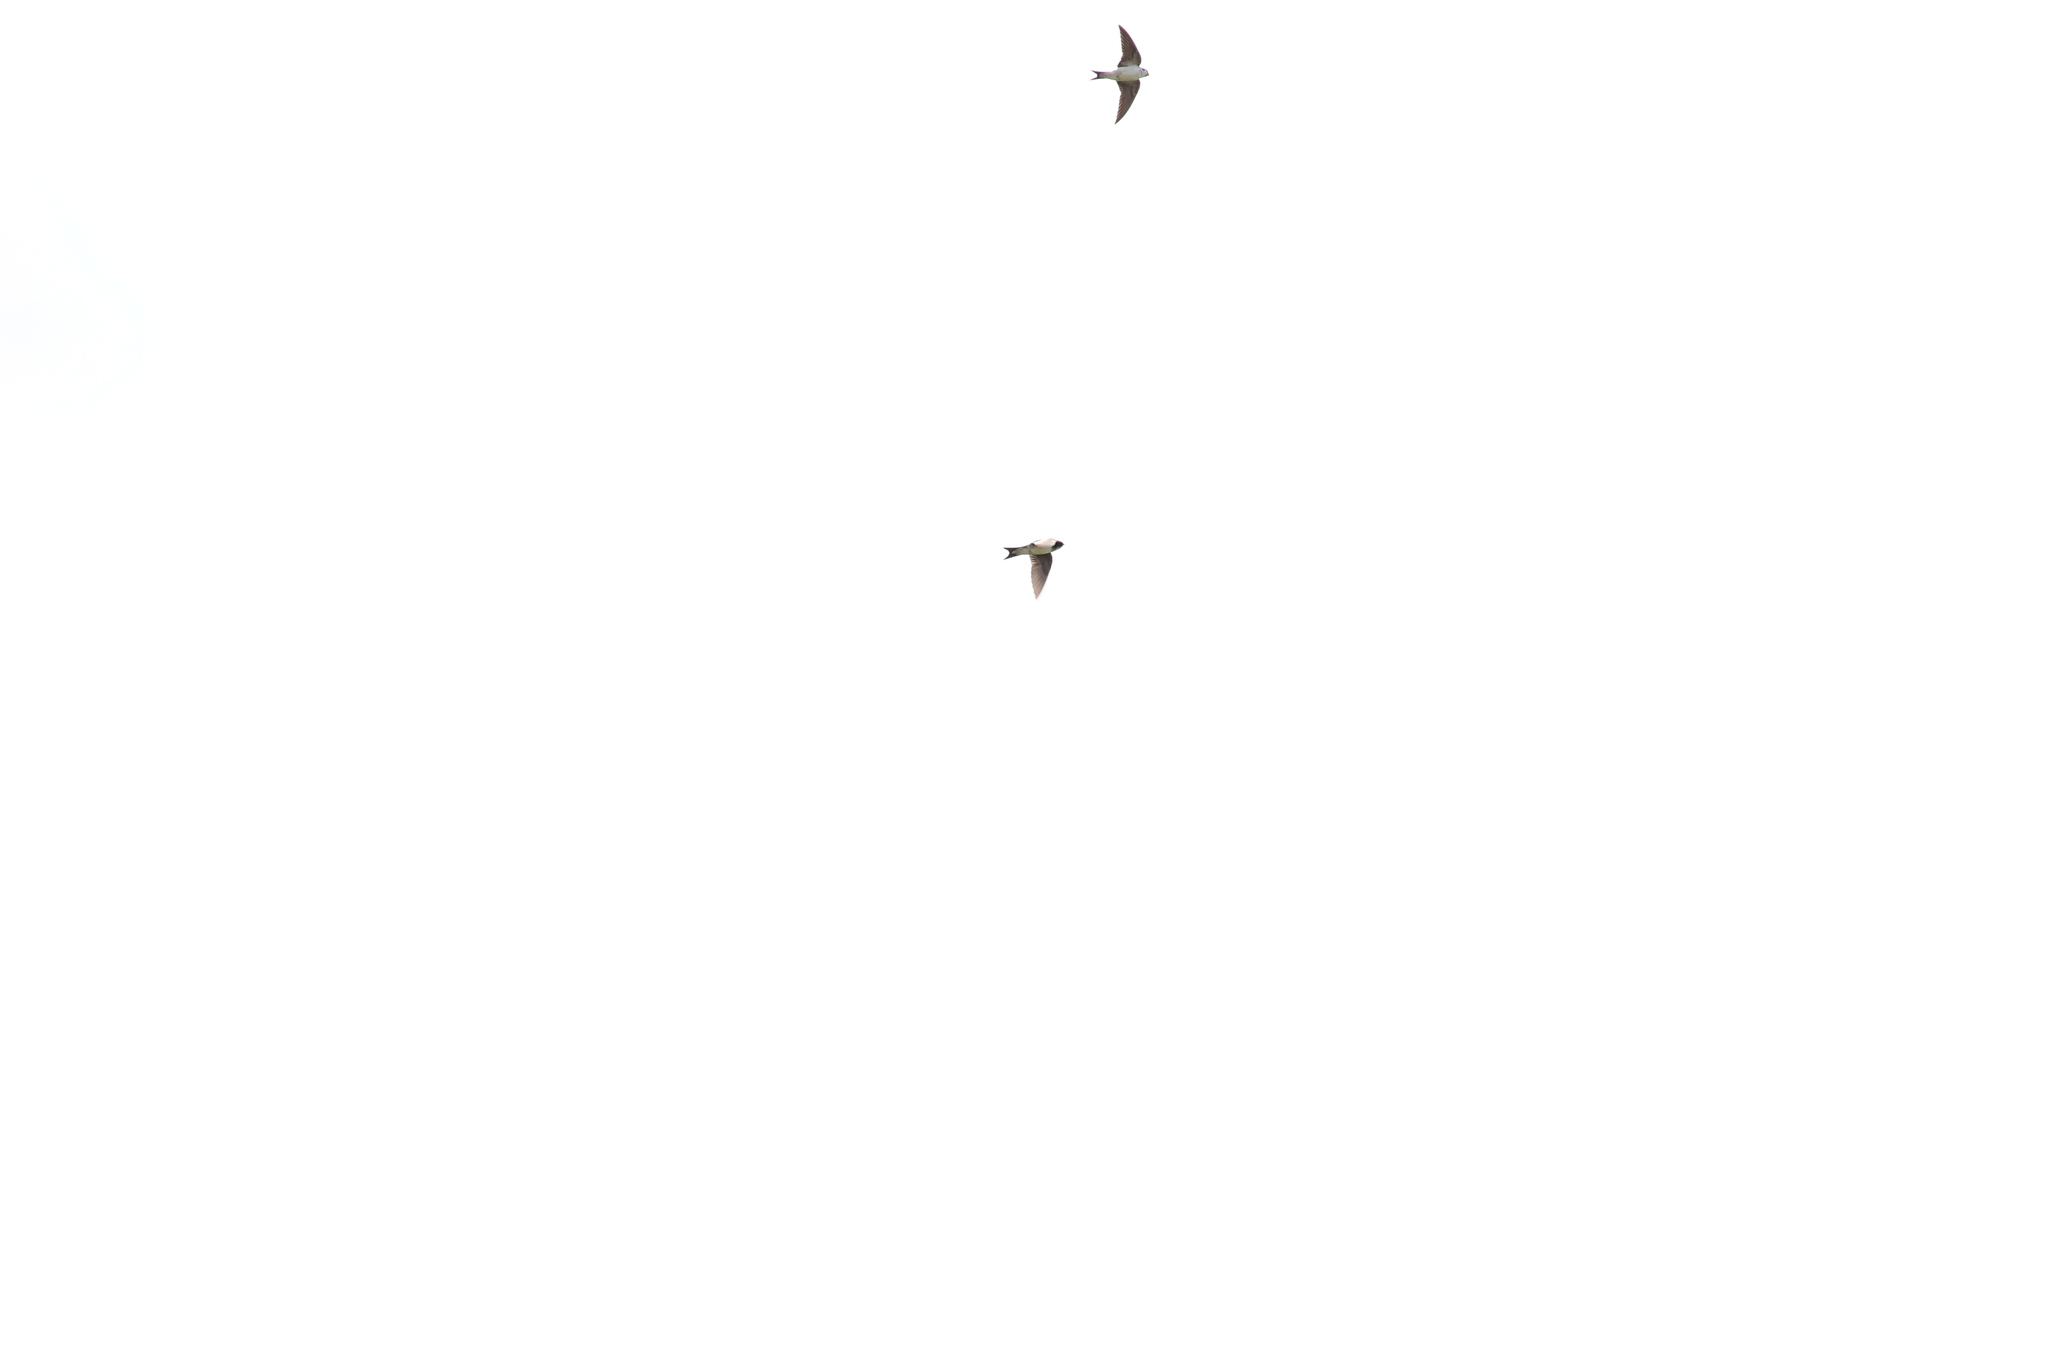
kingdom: Animalia
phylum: Chordata
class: Aves
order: Passeriformes
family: Hirundinidae
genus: Delichon
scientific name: Delichon urbicum
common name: Common house martin
